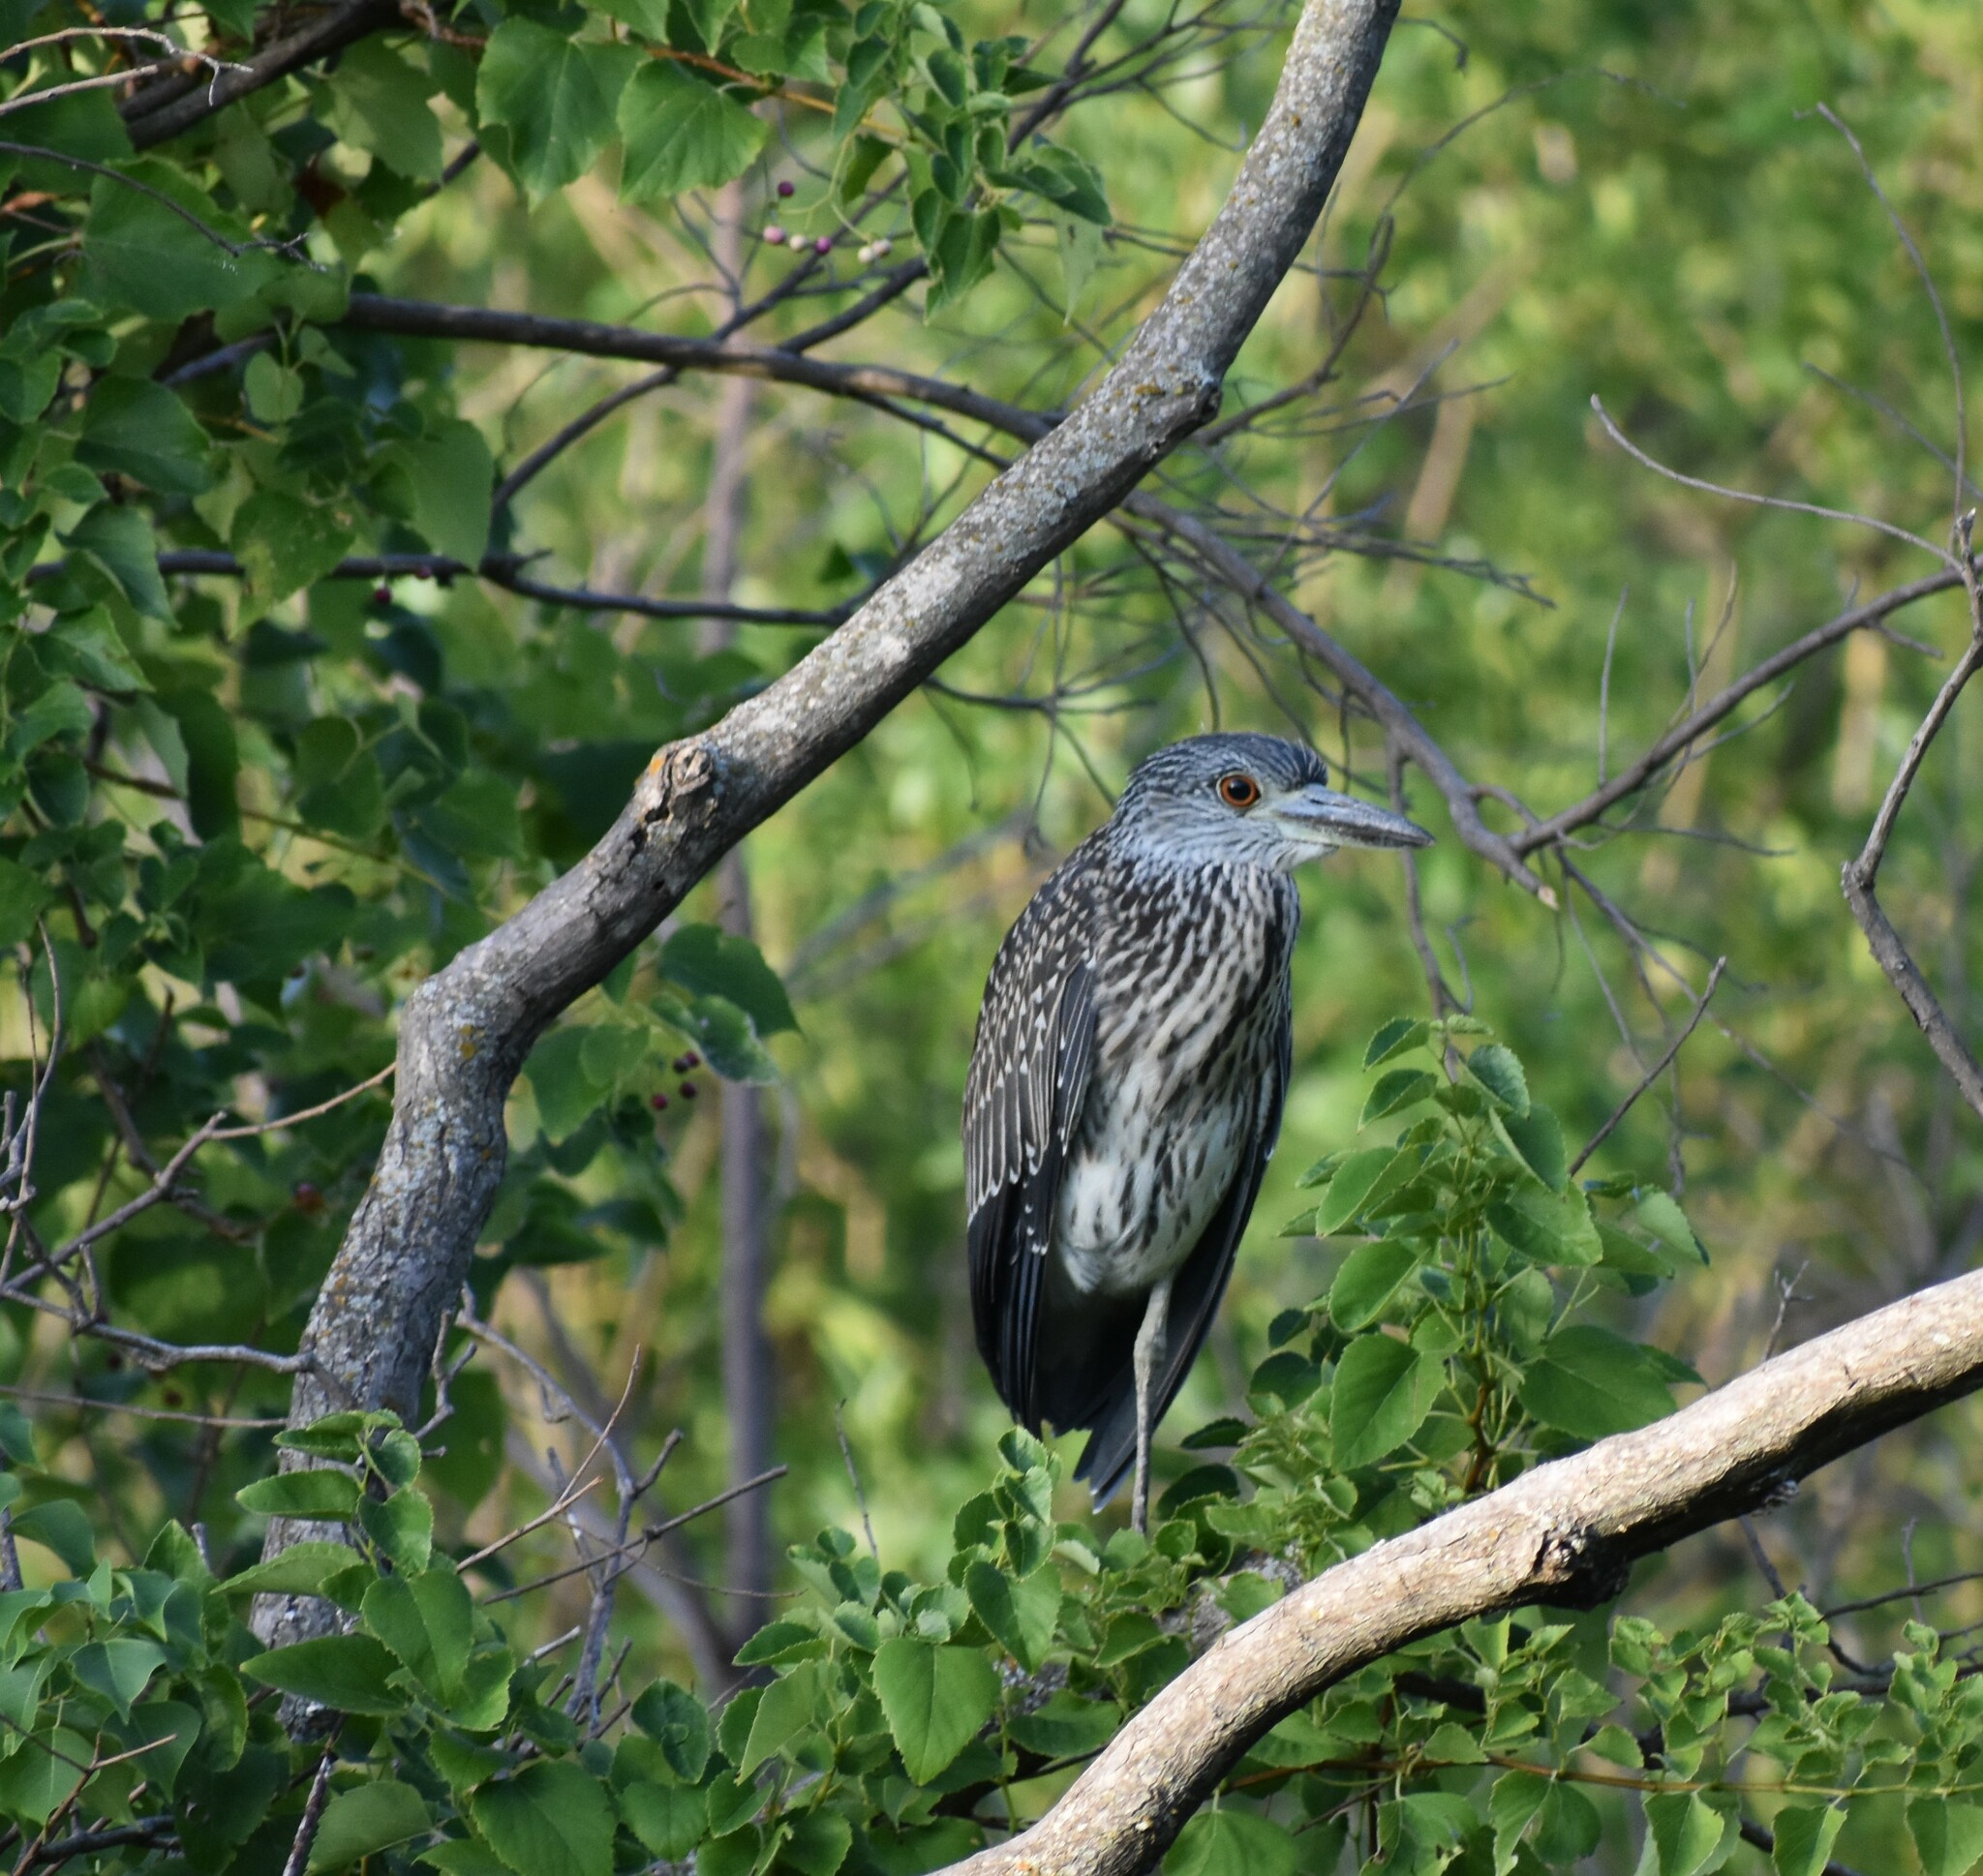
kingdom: Animalia
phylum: Chordata
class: Aves
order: Pelecaniformes
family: Ardeidae
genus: Nyctanassa
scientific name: Nyctanassa violacea
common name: Yellow-crowned night heron
